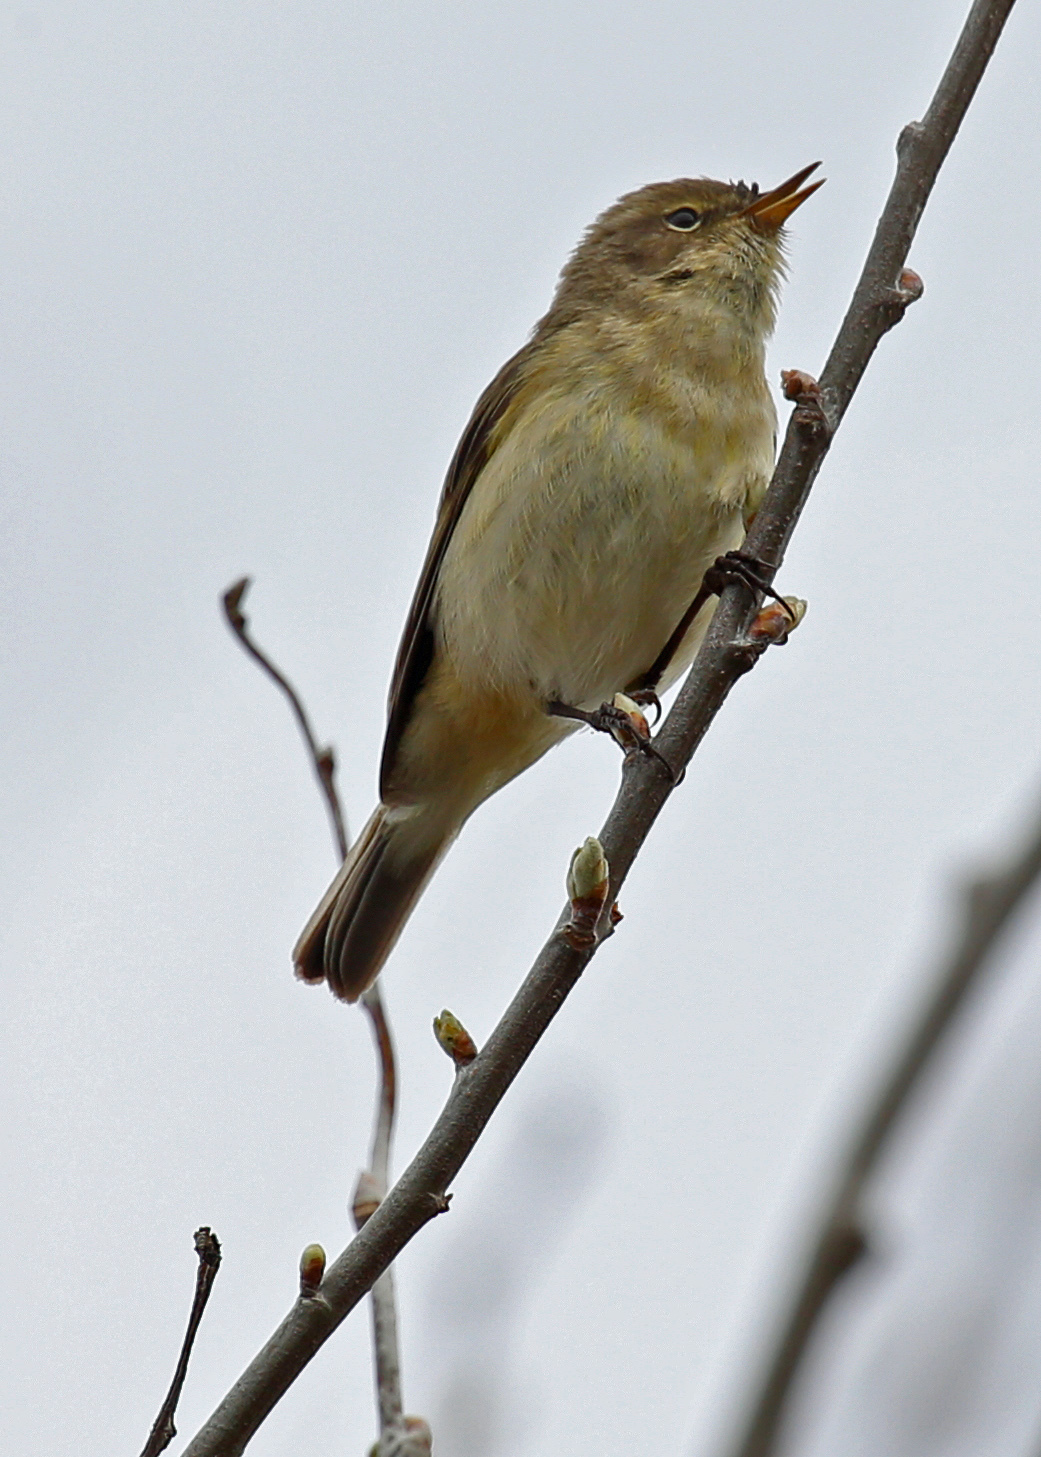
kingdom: Animalia
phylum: Chordata
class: Aves
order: Passeriformes
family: Phylloscopidae
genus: Phylloscopus
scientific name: Phylloscopus collybita
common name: Common chiffchaff
